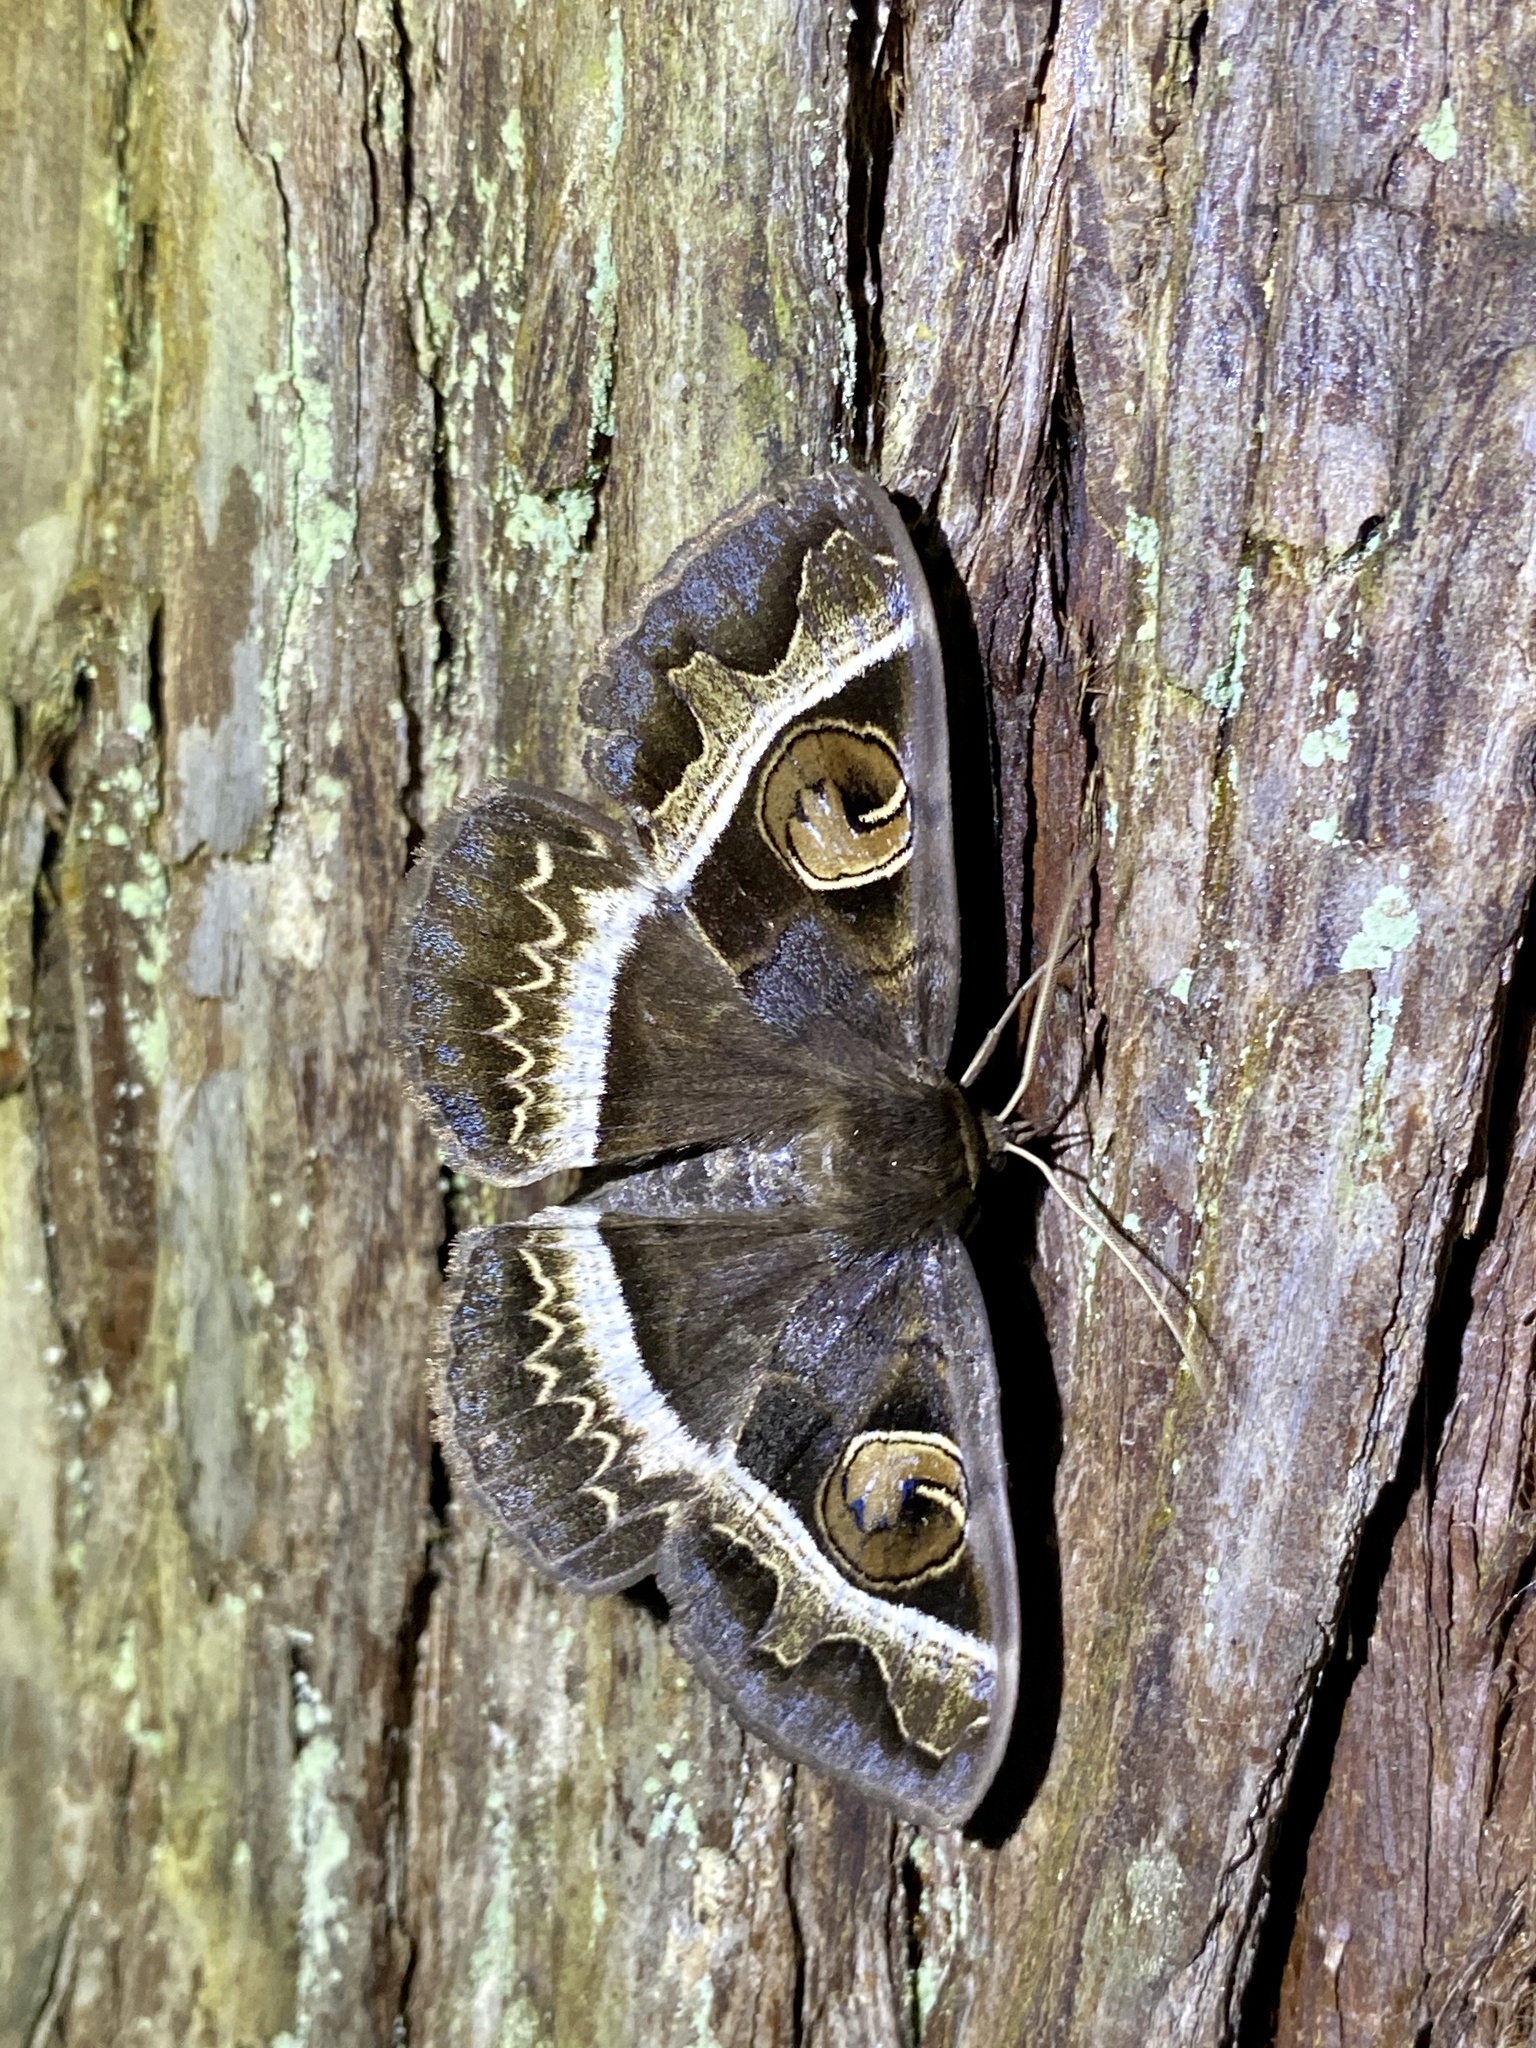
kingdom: Animalia
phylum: Arthropoda
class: Insecta
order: Lepidoptera
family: Erebidae
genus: Metopta
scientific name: Metopta rectifasciata
